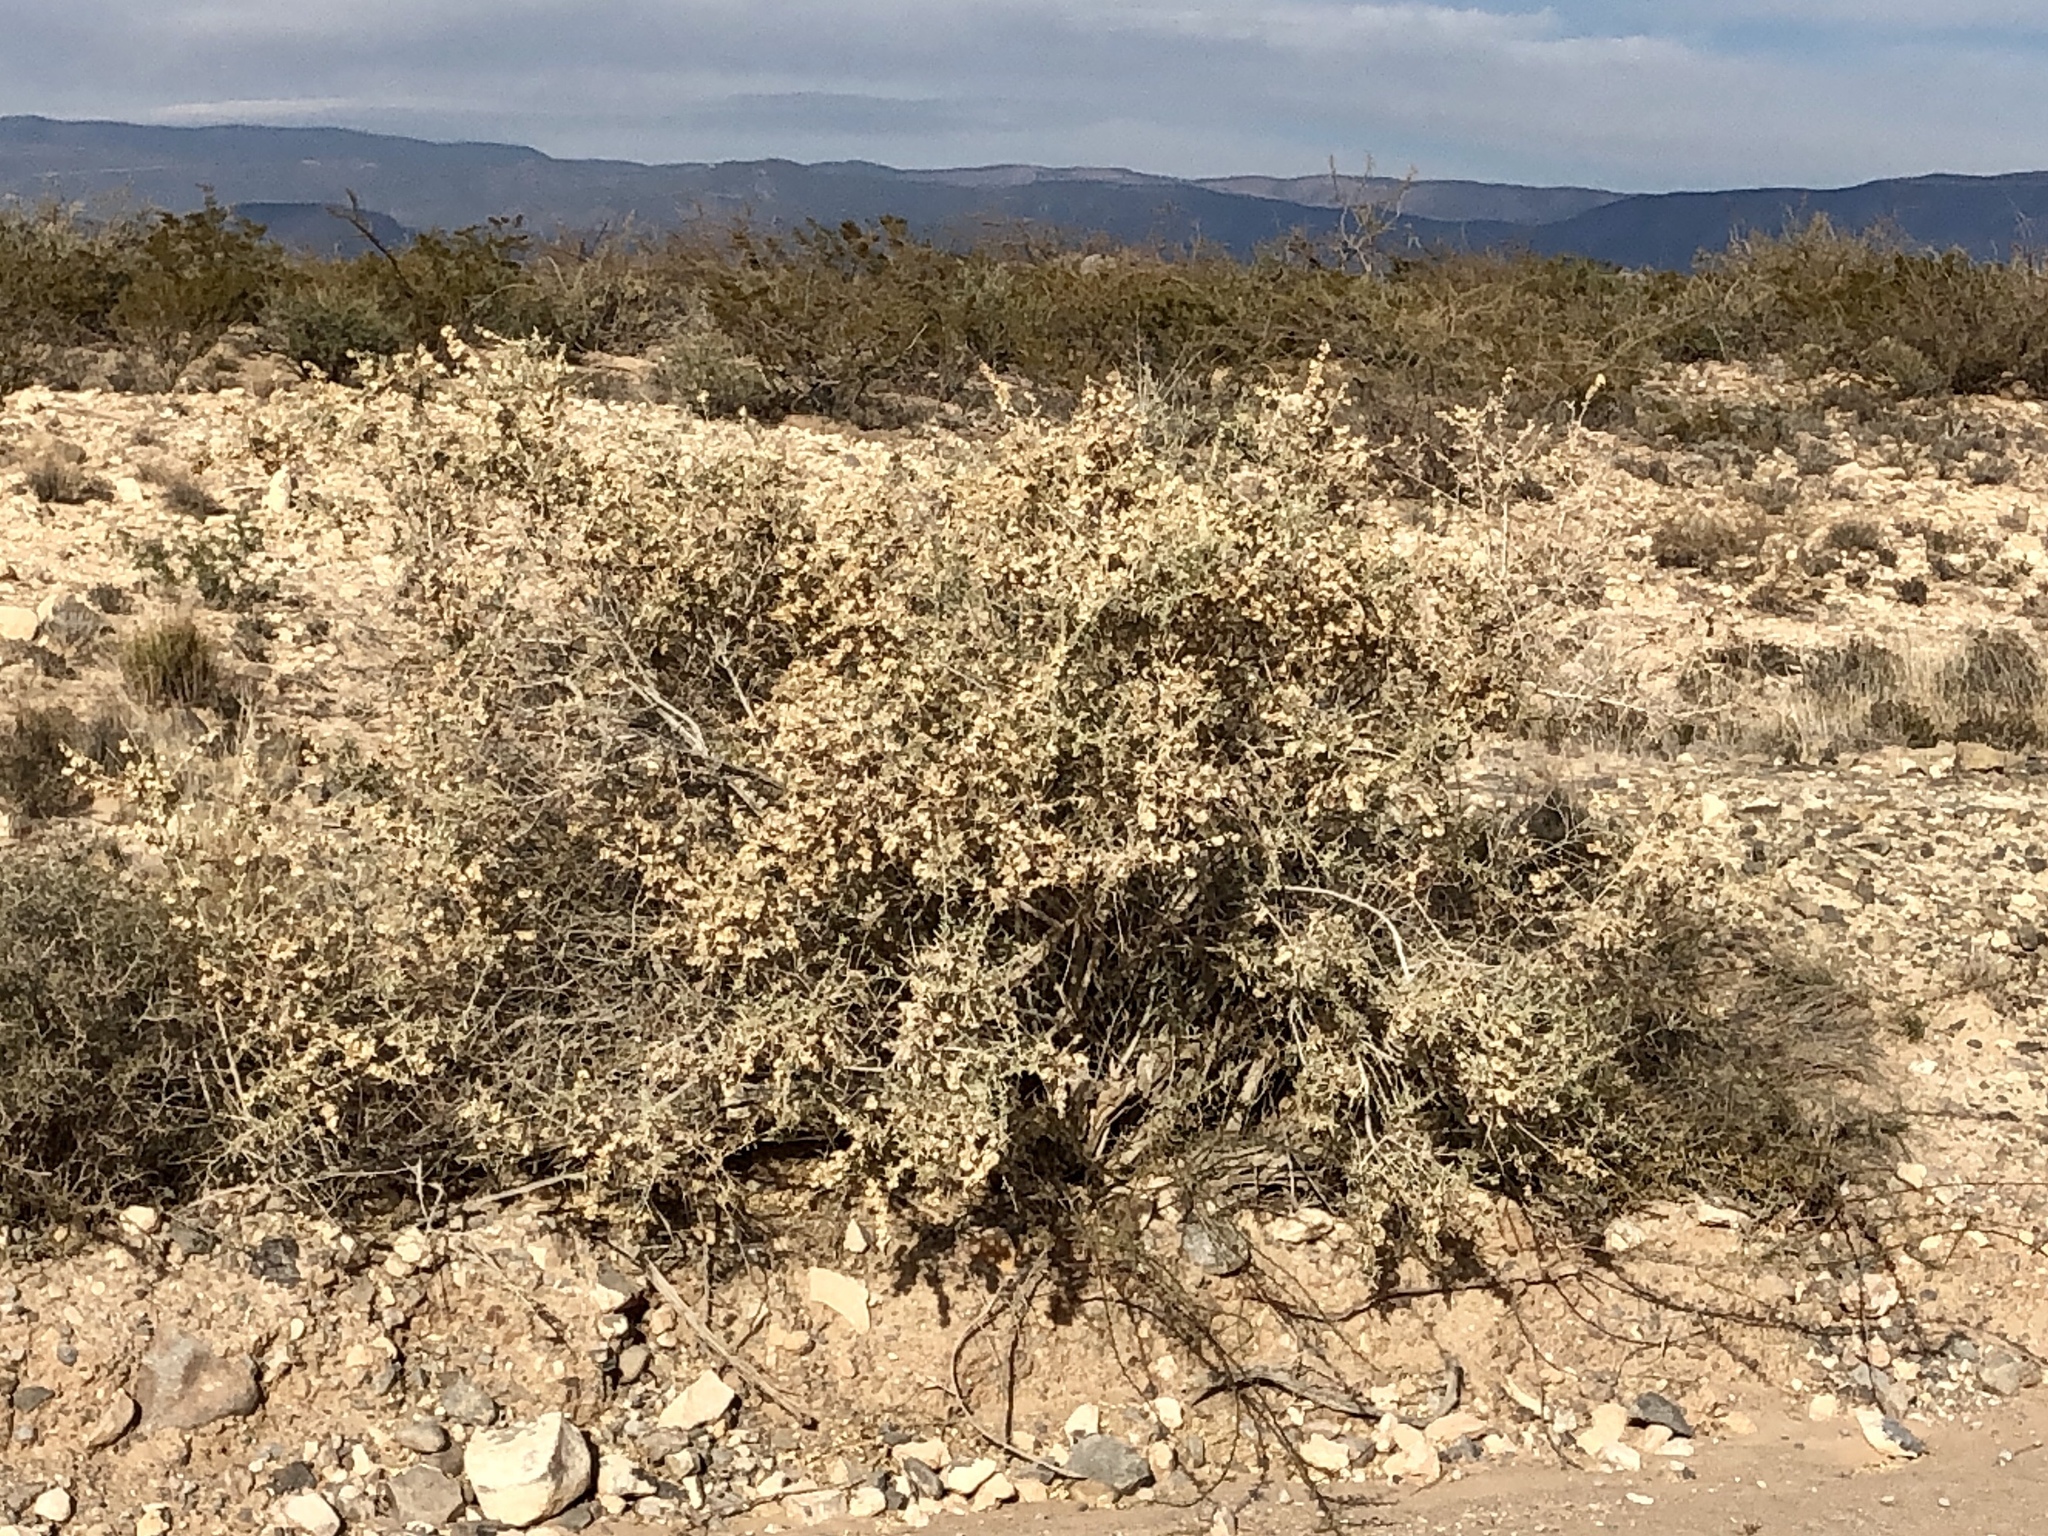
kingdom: Plantae
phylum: Tracheophyta
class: Magnoliopsida
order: Caryophyllales
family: Amaranthaceae
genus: Atriplex
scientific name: Atriplex canescens
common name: Four-wing saltbush
